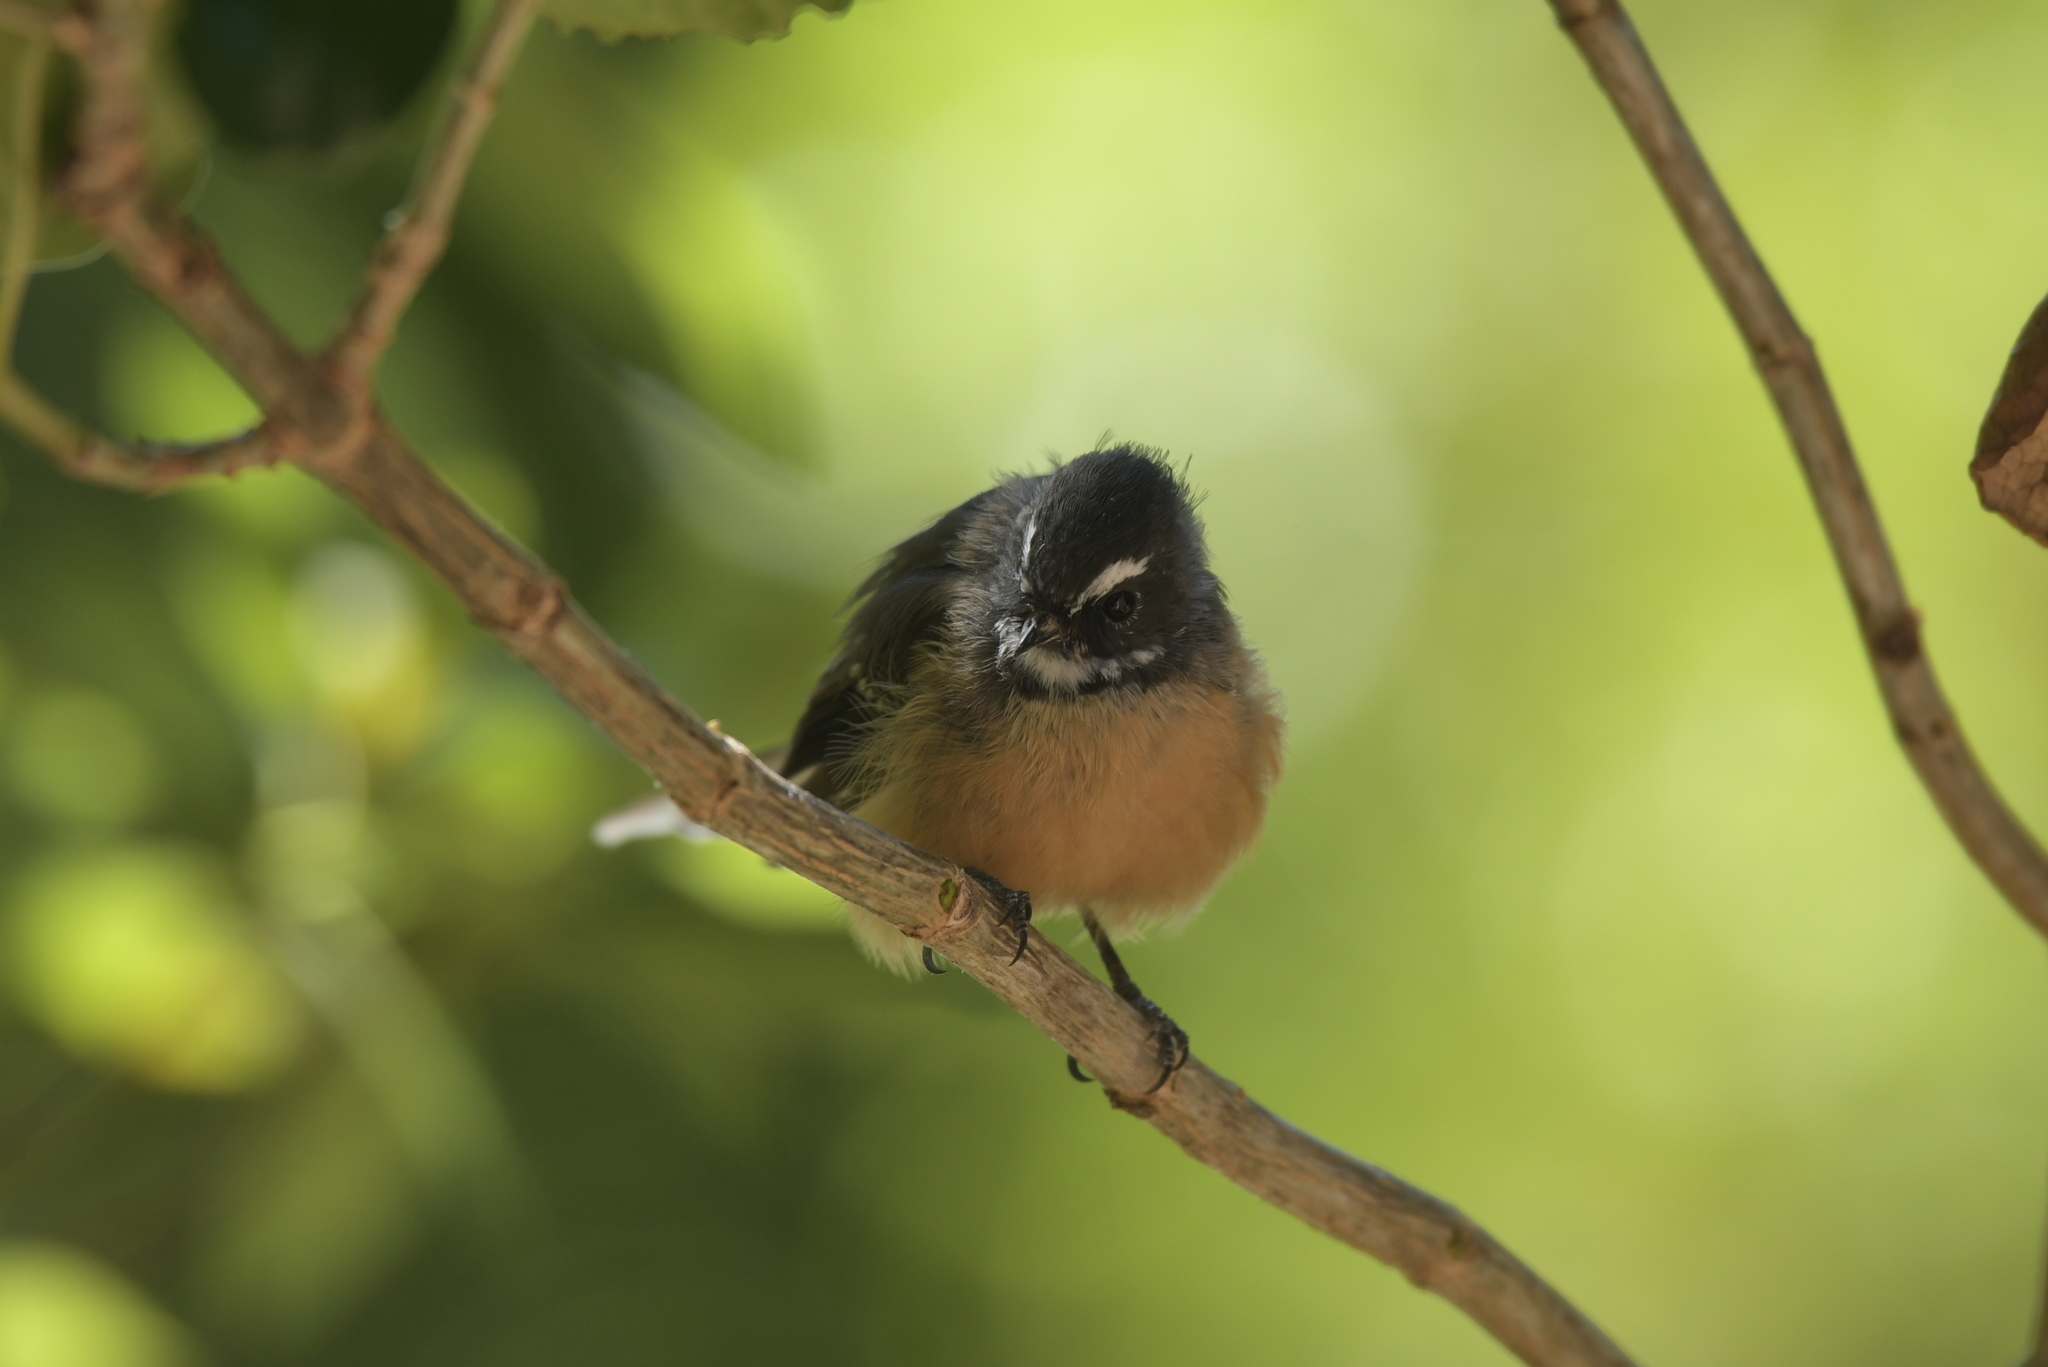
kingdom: Animalia
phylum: Chordata
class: Aves
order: Passeriformes
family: Rhipiduridae
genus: Rhipidura
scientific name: Rhipidura fuliginosa
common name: New zealand fantail
